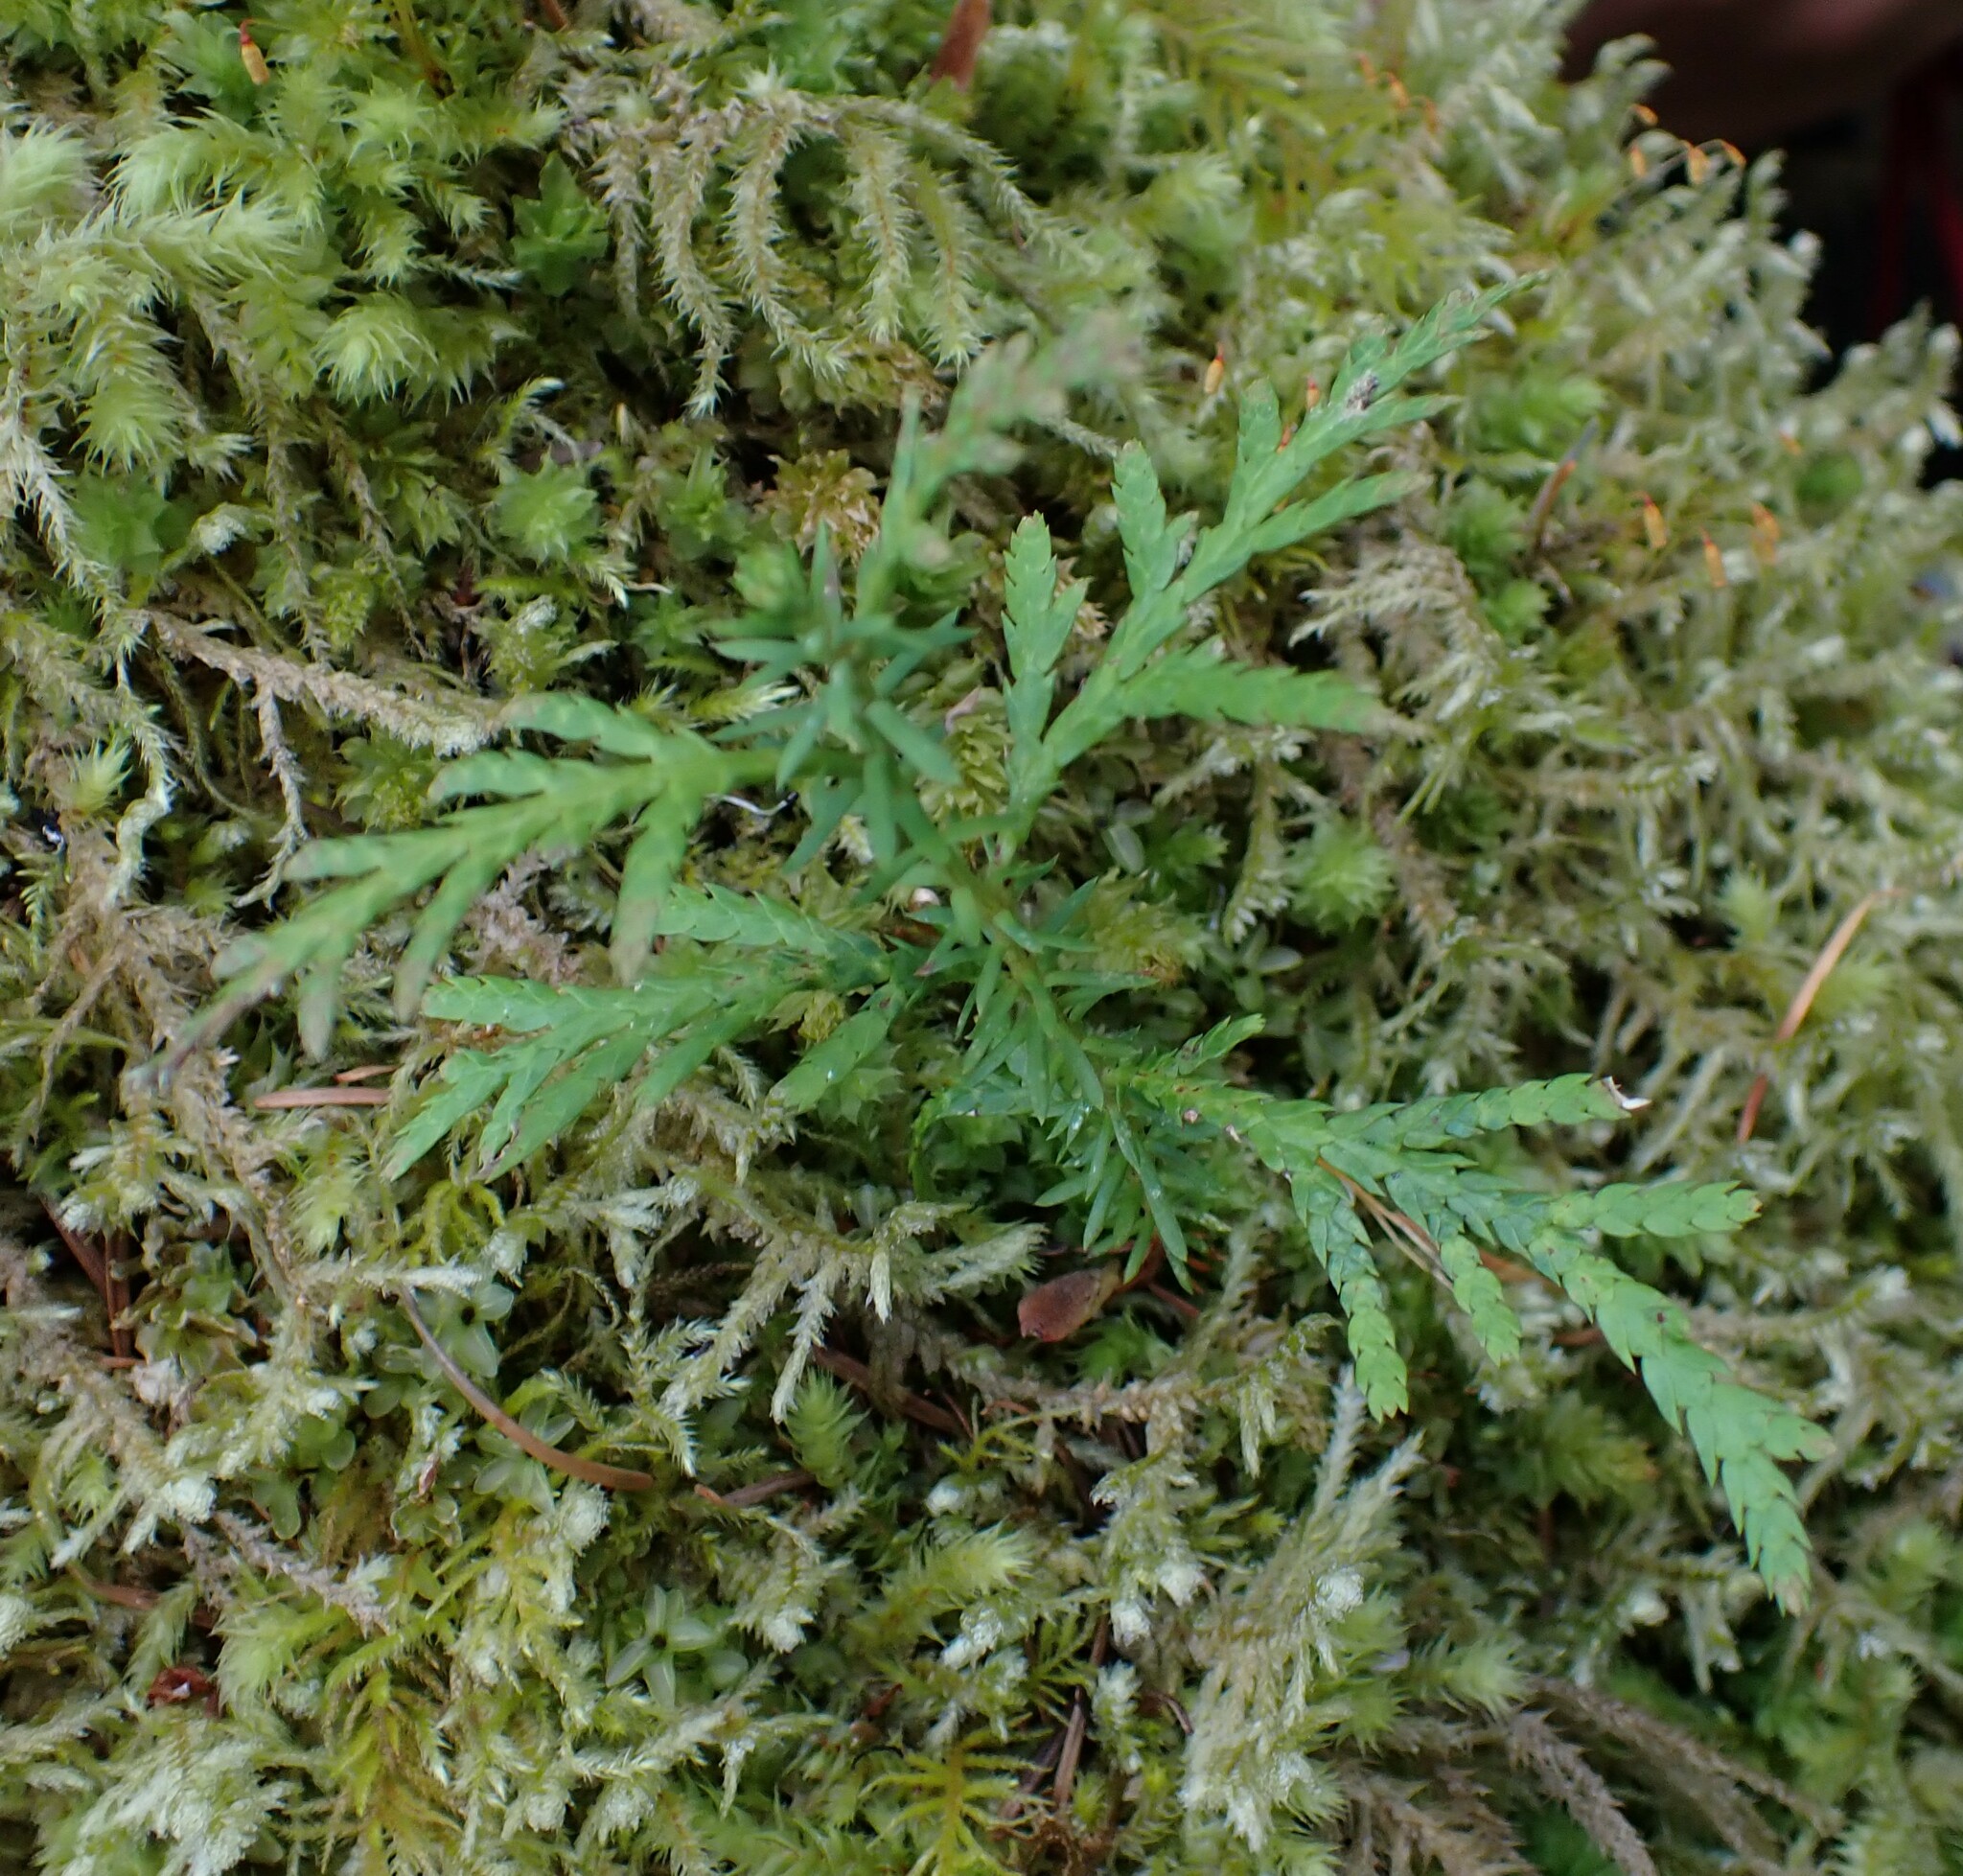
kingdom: Plantae
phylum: Tracheophyta
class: Pinopsida
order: Pinales
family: Cupressaceae
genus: Thuja
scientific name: Thuja plicata
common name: Western red-cedar
